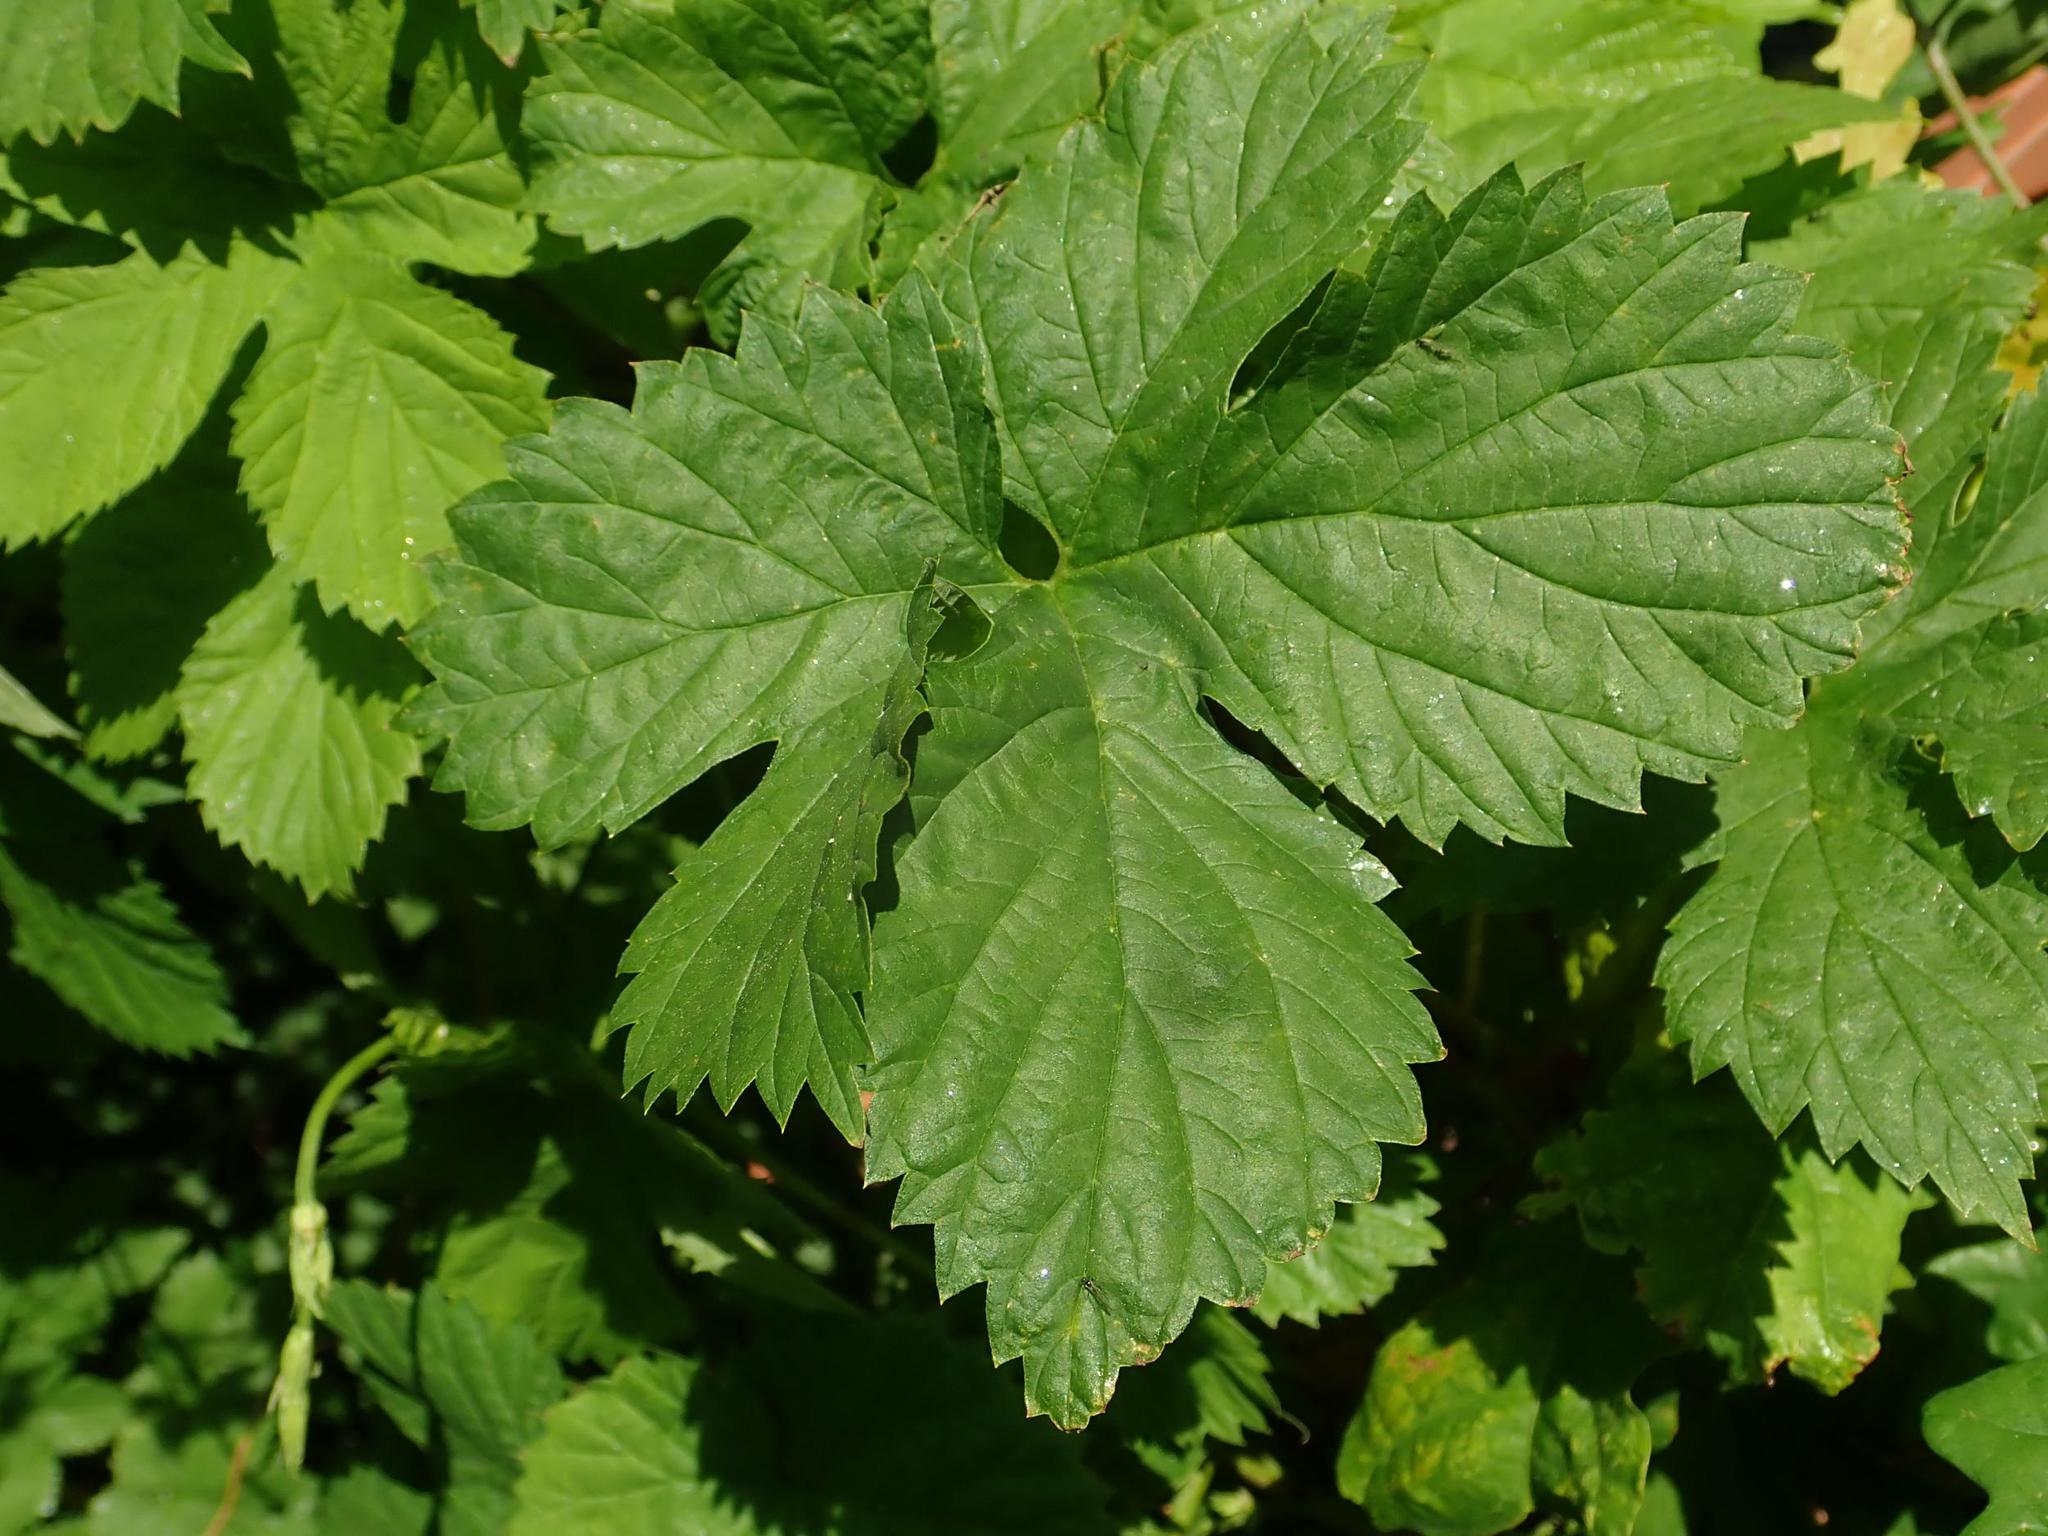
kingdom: Plantae
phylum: Tracheophyta
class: Magnoliopsida
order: Rosales
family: Cannabaceae
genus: Humulus
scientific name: Humulus lupulus
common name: Hop
